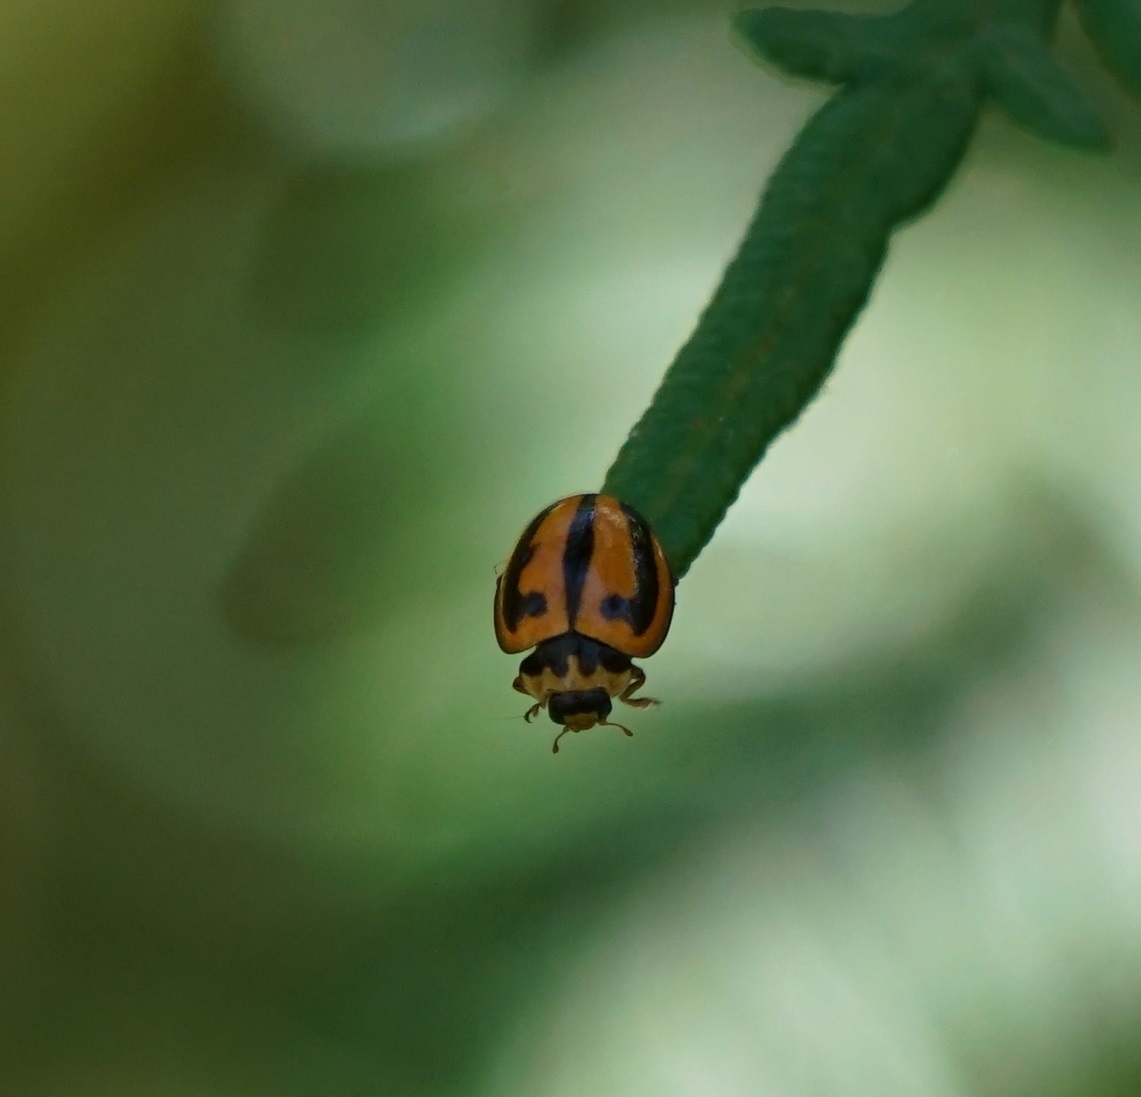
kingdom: Animalia
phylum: Arthropoda
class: Insecta
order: Coleoptera
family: Coccinellidae
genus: Micraspis
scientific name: Micraspis frenata
